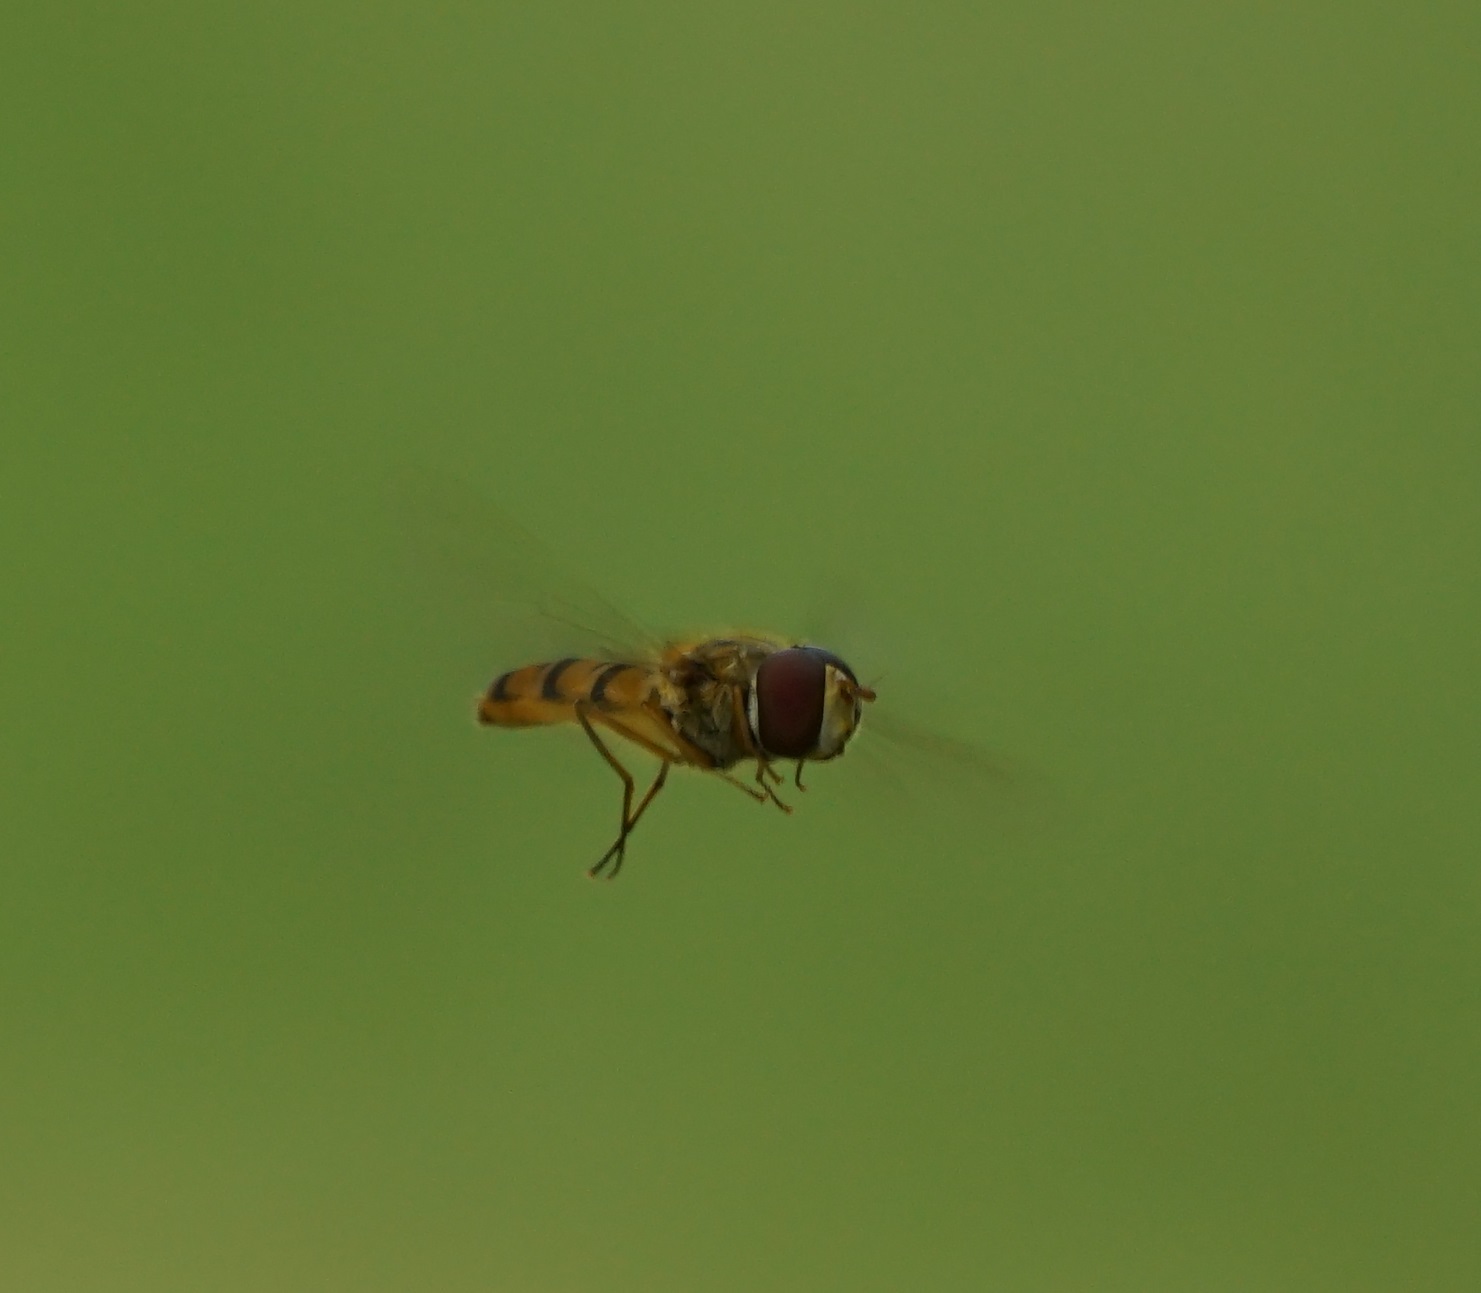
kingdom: Animalia
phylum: Arthropoda
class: Insecta
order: Diptera
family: Syrphidae
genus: Episyrphus
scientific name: Episyrphus balteatus
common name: Marmalade hoverfly
